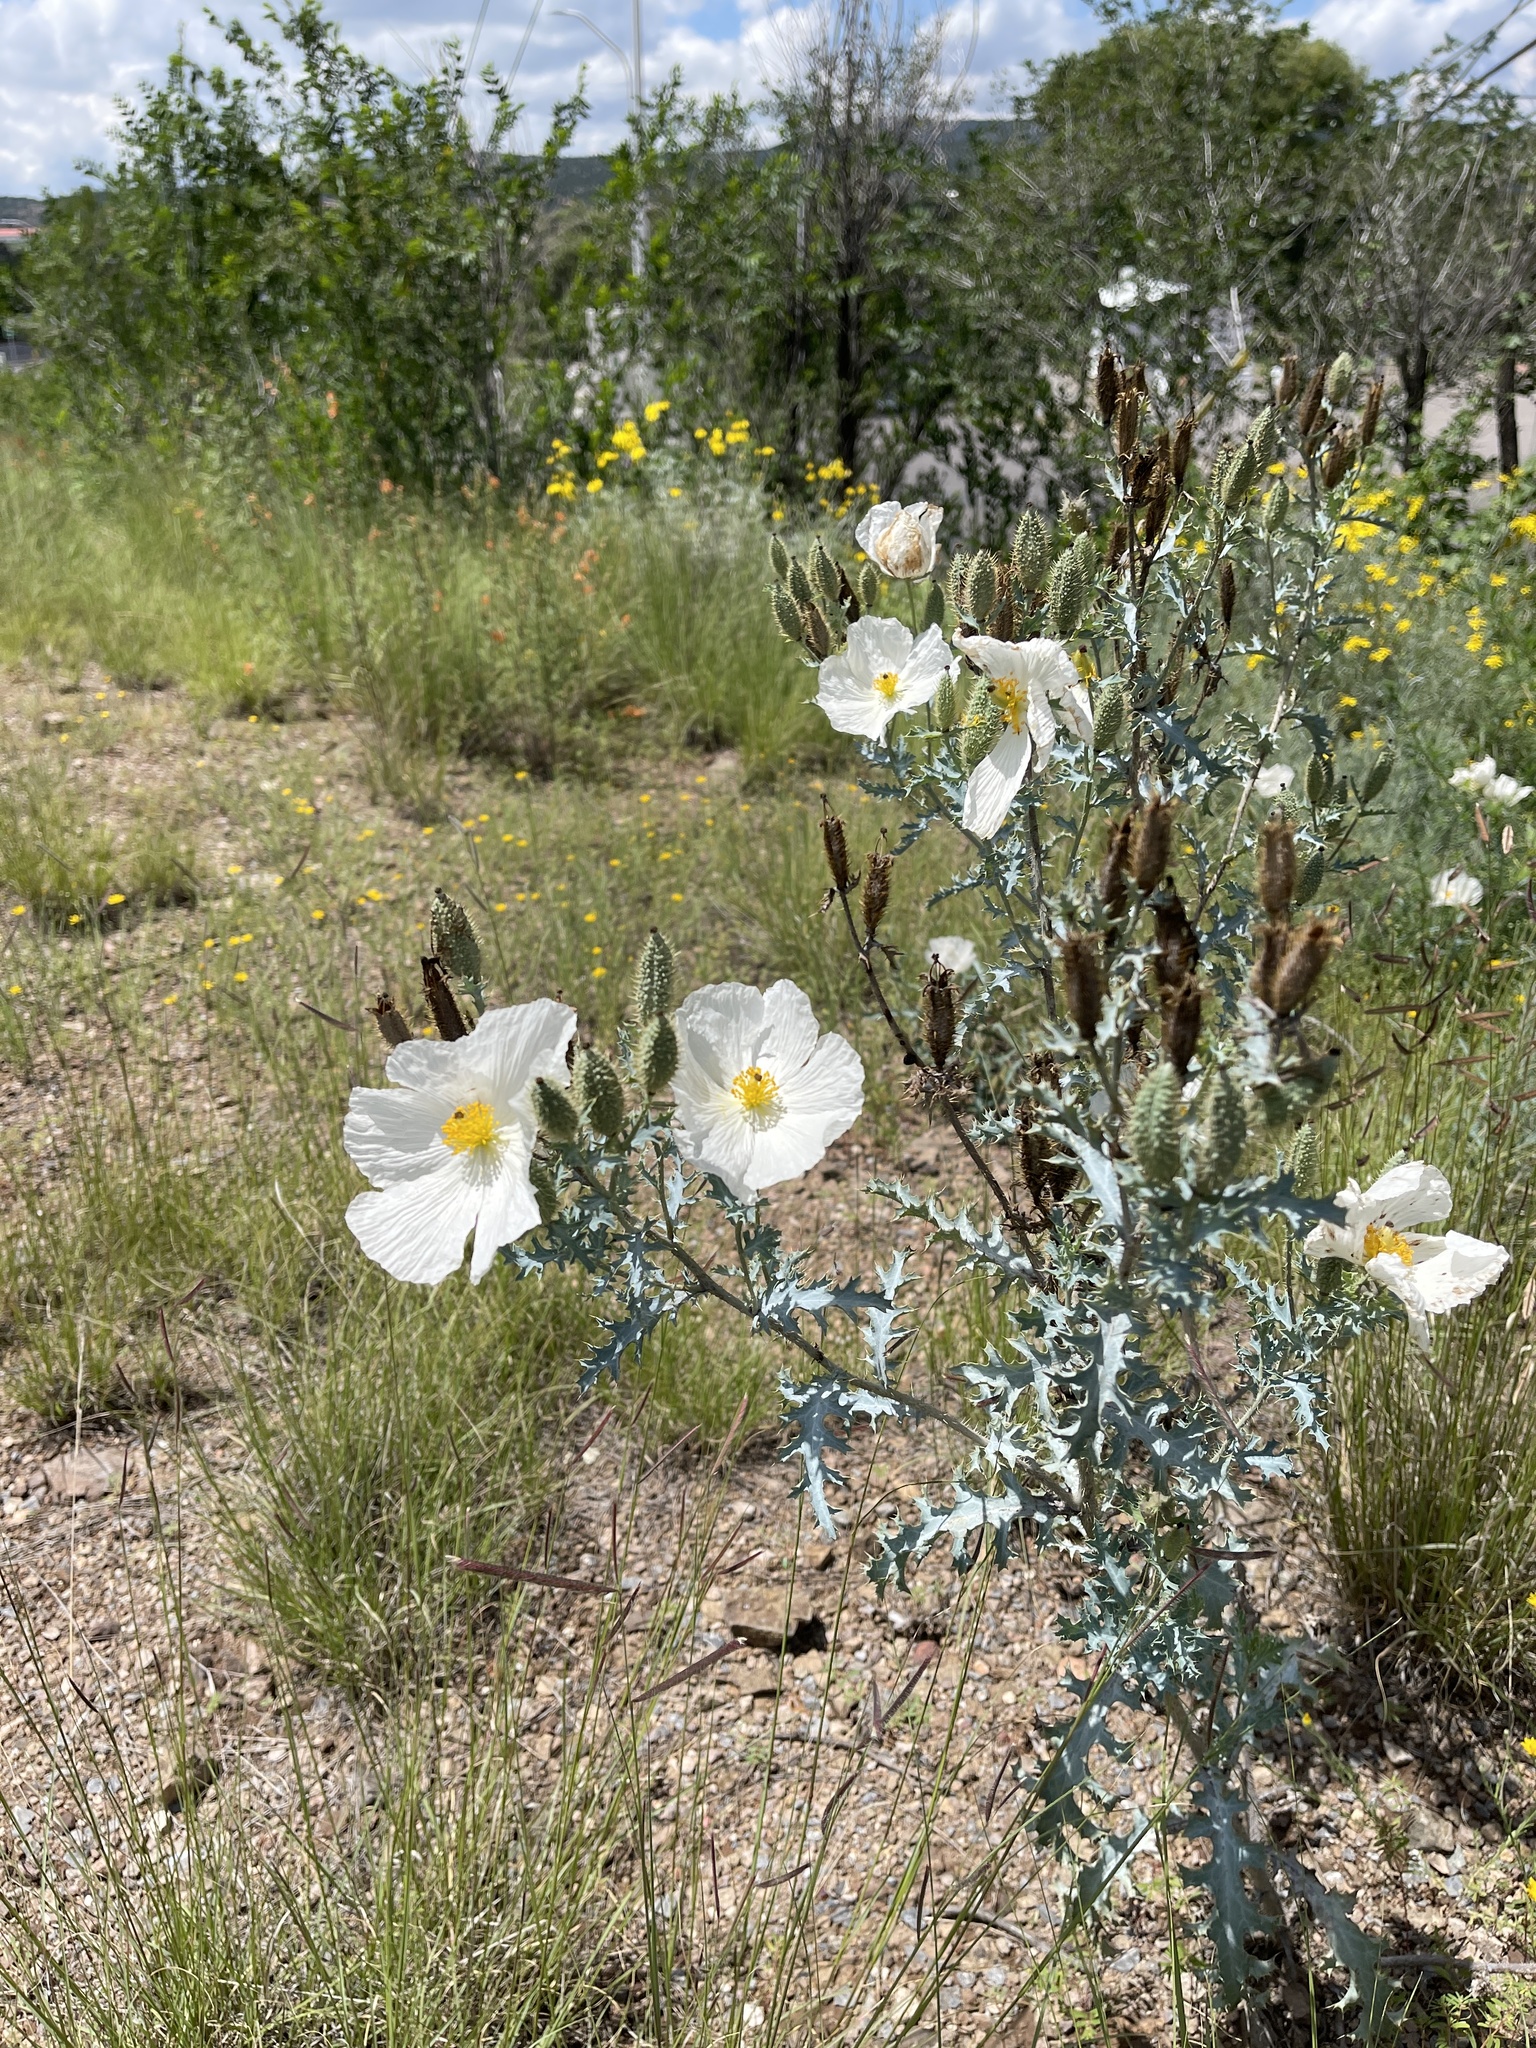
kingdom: Plantae
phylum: Tracheophyta
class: Magnoliopsida
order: Ranunculales
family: Papaveraceae
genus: Argemone
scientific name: Argemone pleiacantha
